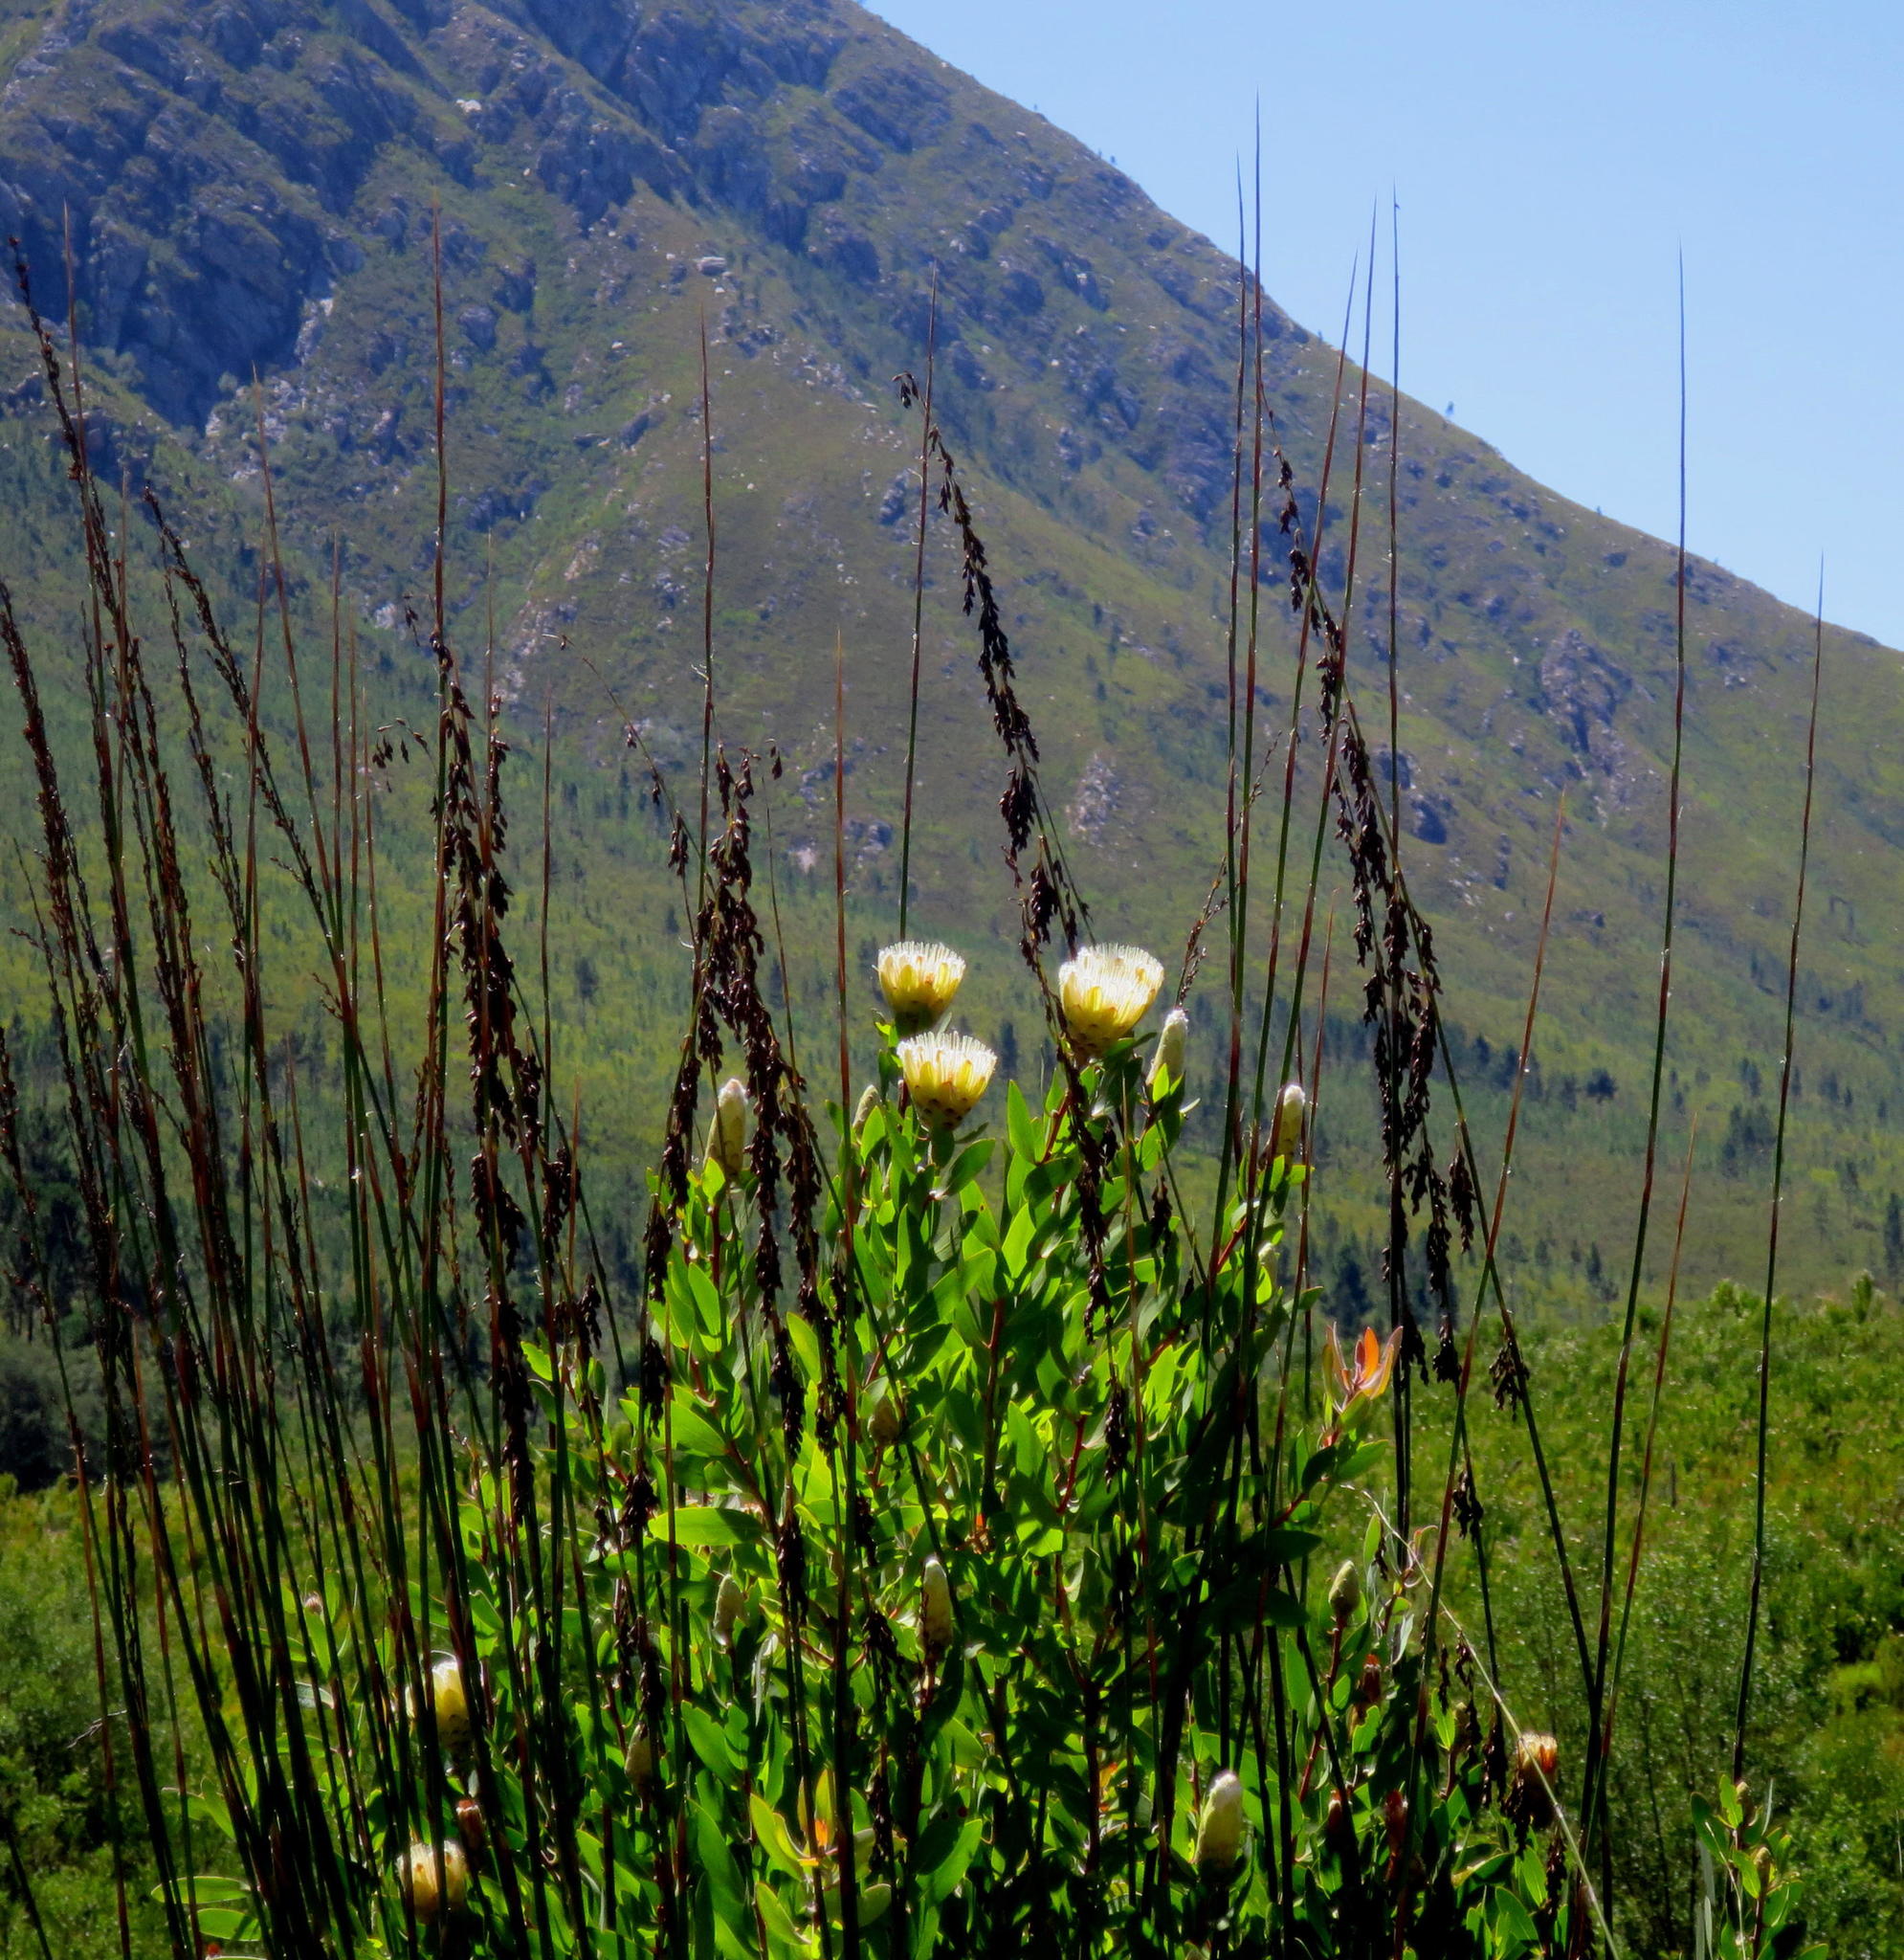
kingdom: Plantae
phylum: Tracheophyta
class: Magnoliopsida
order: Proteales
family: Proteaceae
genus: Protea
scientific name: Protea mundii
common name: Forest sugarbush
